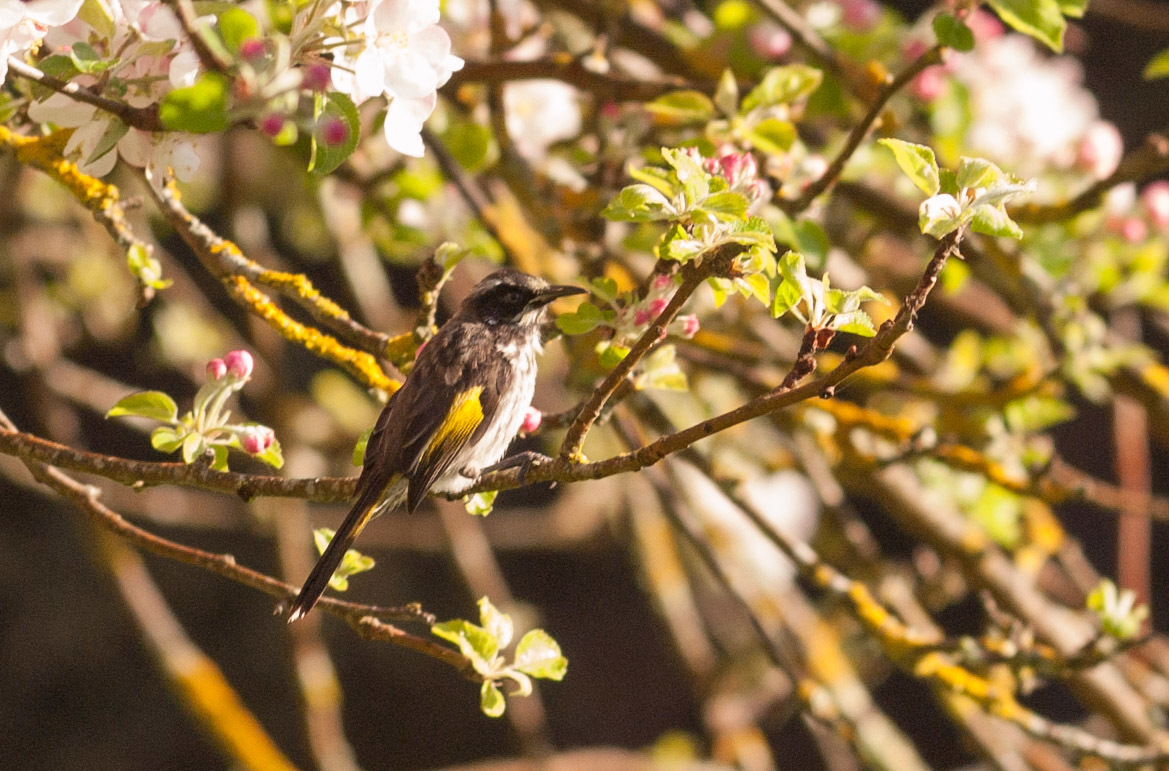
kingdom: Animalia
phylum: Chordata
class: Aves
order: Passeriformes
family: Meliphagidae
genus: Phylidonyris
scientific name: Phylidonyris novaehollandiae
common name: New holland honeyeater
